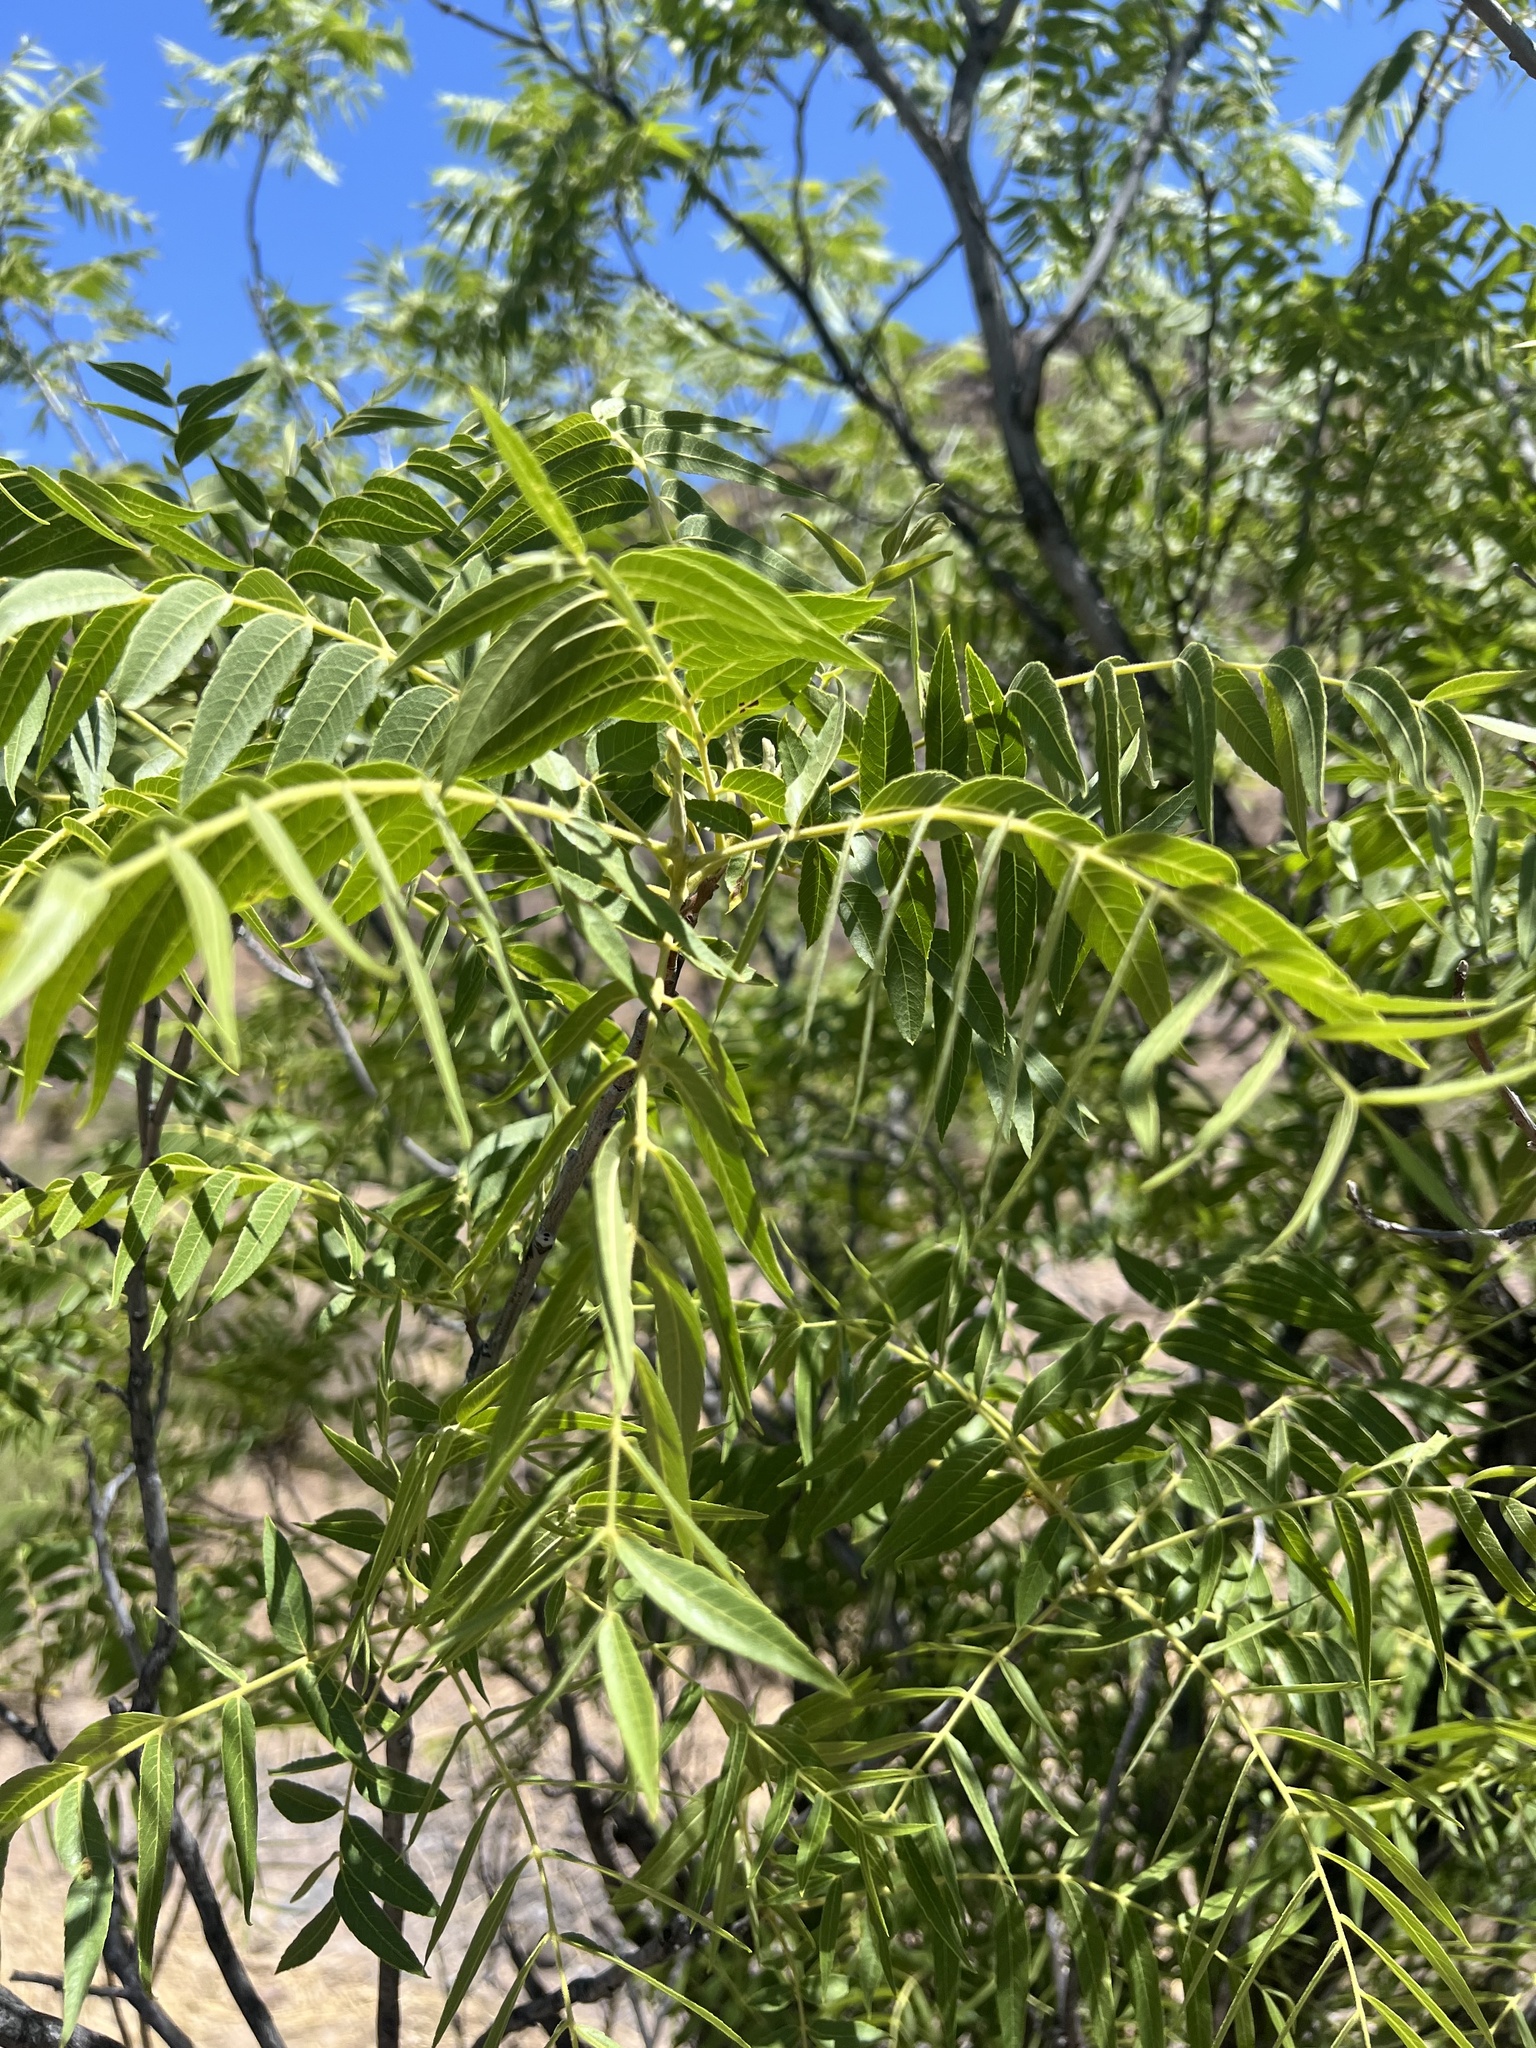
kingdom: Plantae
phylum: Tracheophyta
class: Magnoliopsida
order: Fagales
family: Juglandaceae
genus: Juglans
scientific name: Juglans microcarpa
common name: Texas walnut
